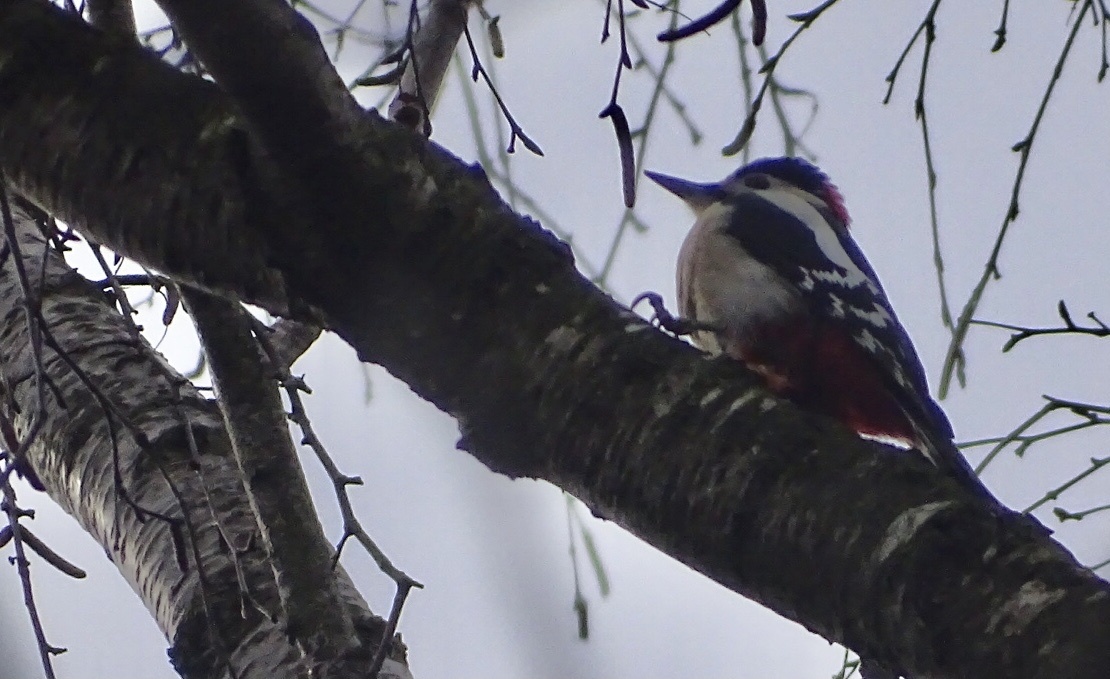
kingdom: Animalia
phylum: Chordata
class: Aves
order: Piciformes
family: Picidae
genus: Dendrocopos
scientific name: Dendrocopos major
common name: Great spotted woodpecker
